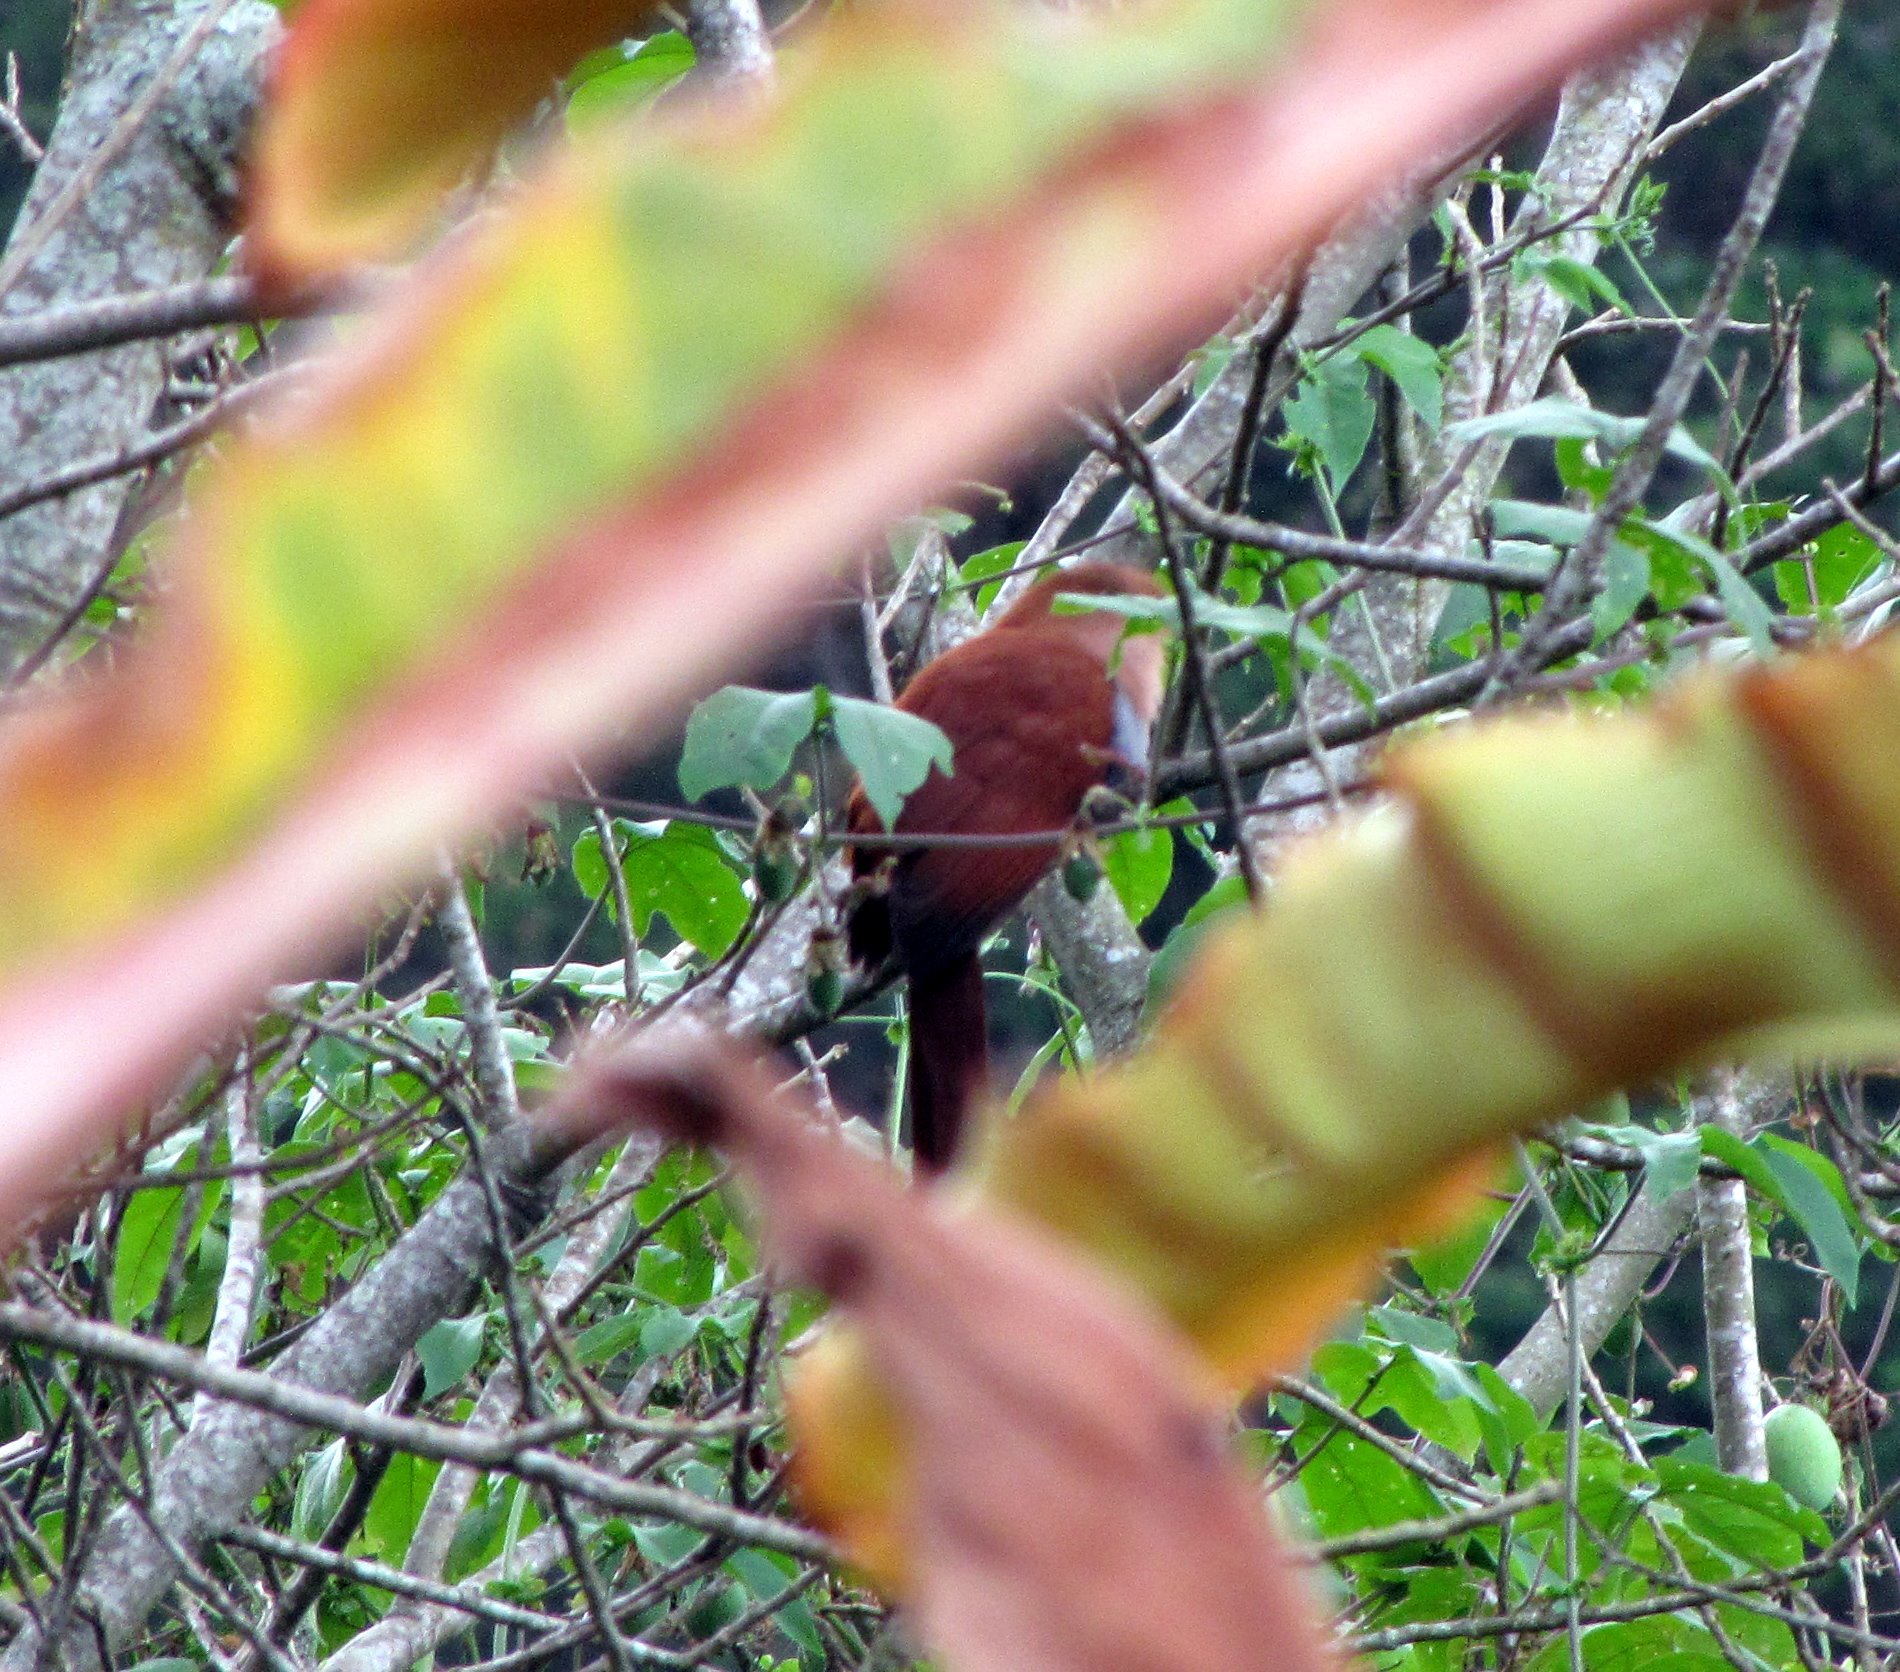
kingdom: Animalia
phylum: Chordata
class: Aves
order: Cuculiformes
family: Cuculidae
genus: Piaya
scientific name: Piaya cayana
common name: Squirrel cuckoo
